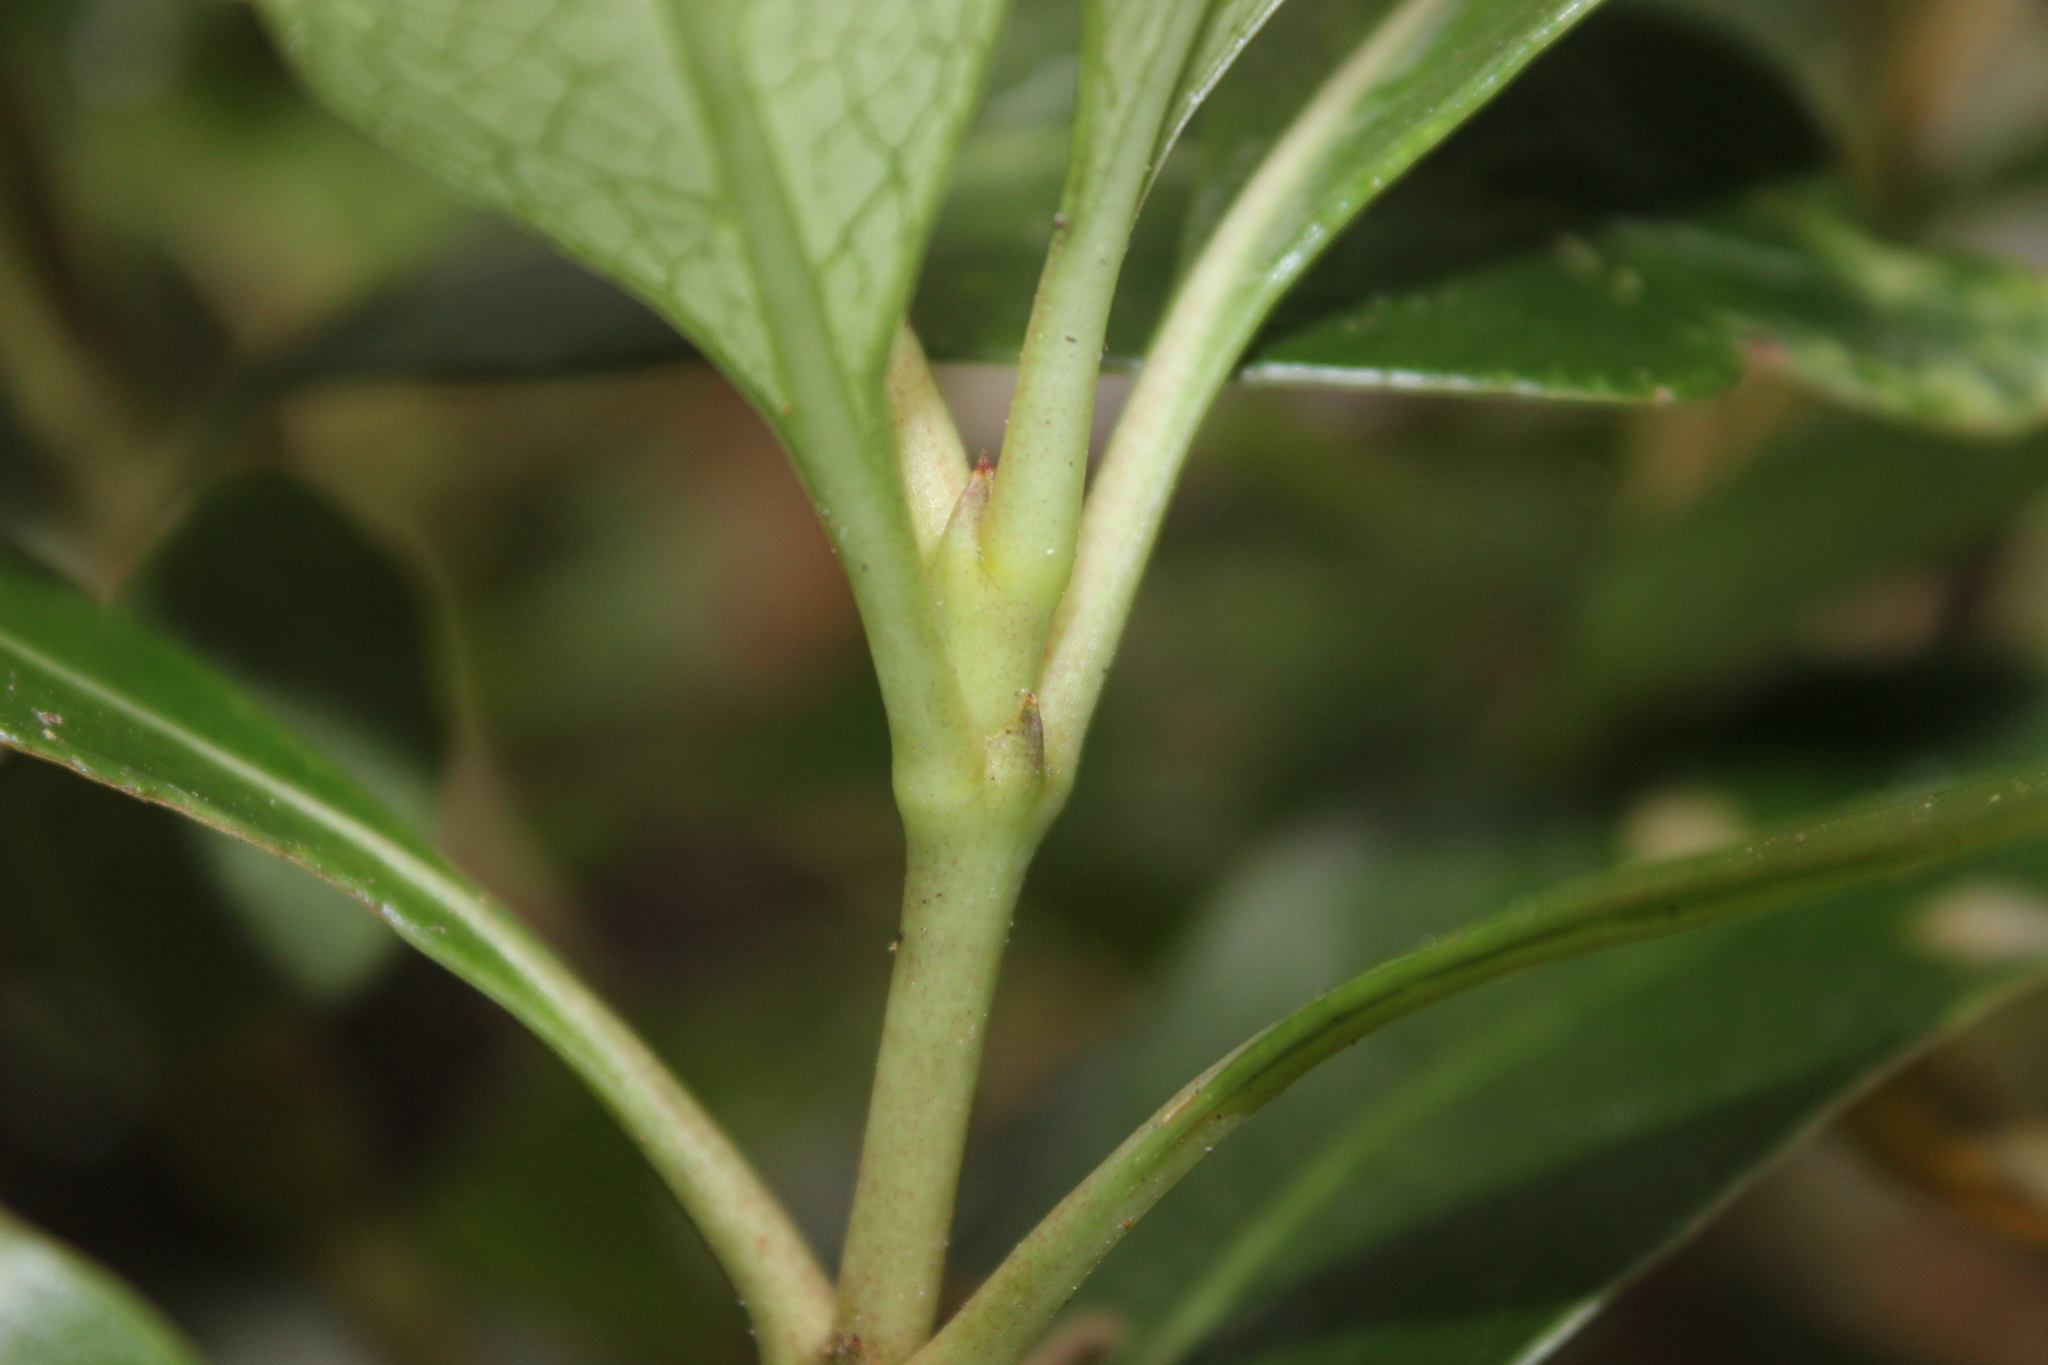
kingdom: Plantae
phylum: Tracheophyta
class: Magnoliopsida
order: Gentianales
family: Rubiaceae
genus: Coprosma
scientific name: Coprosma lucida
